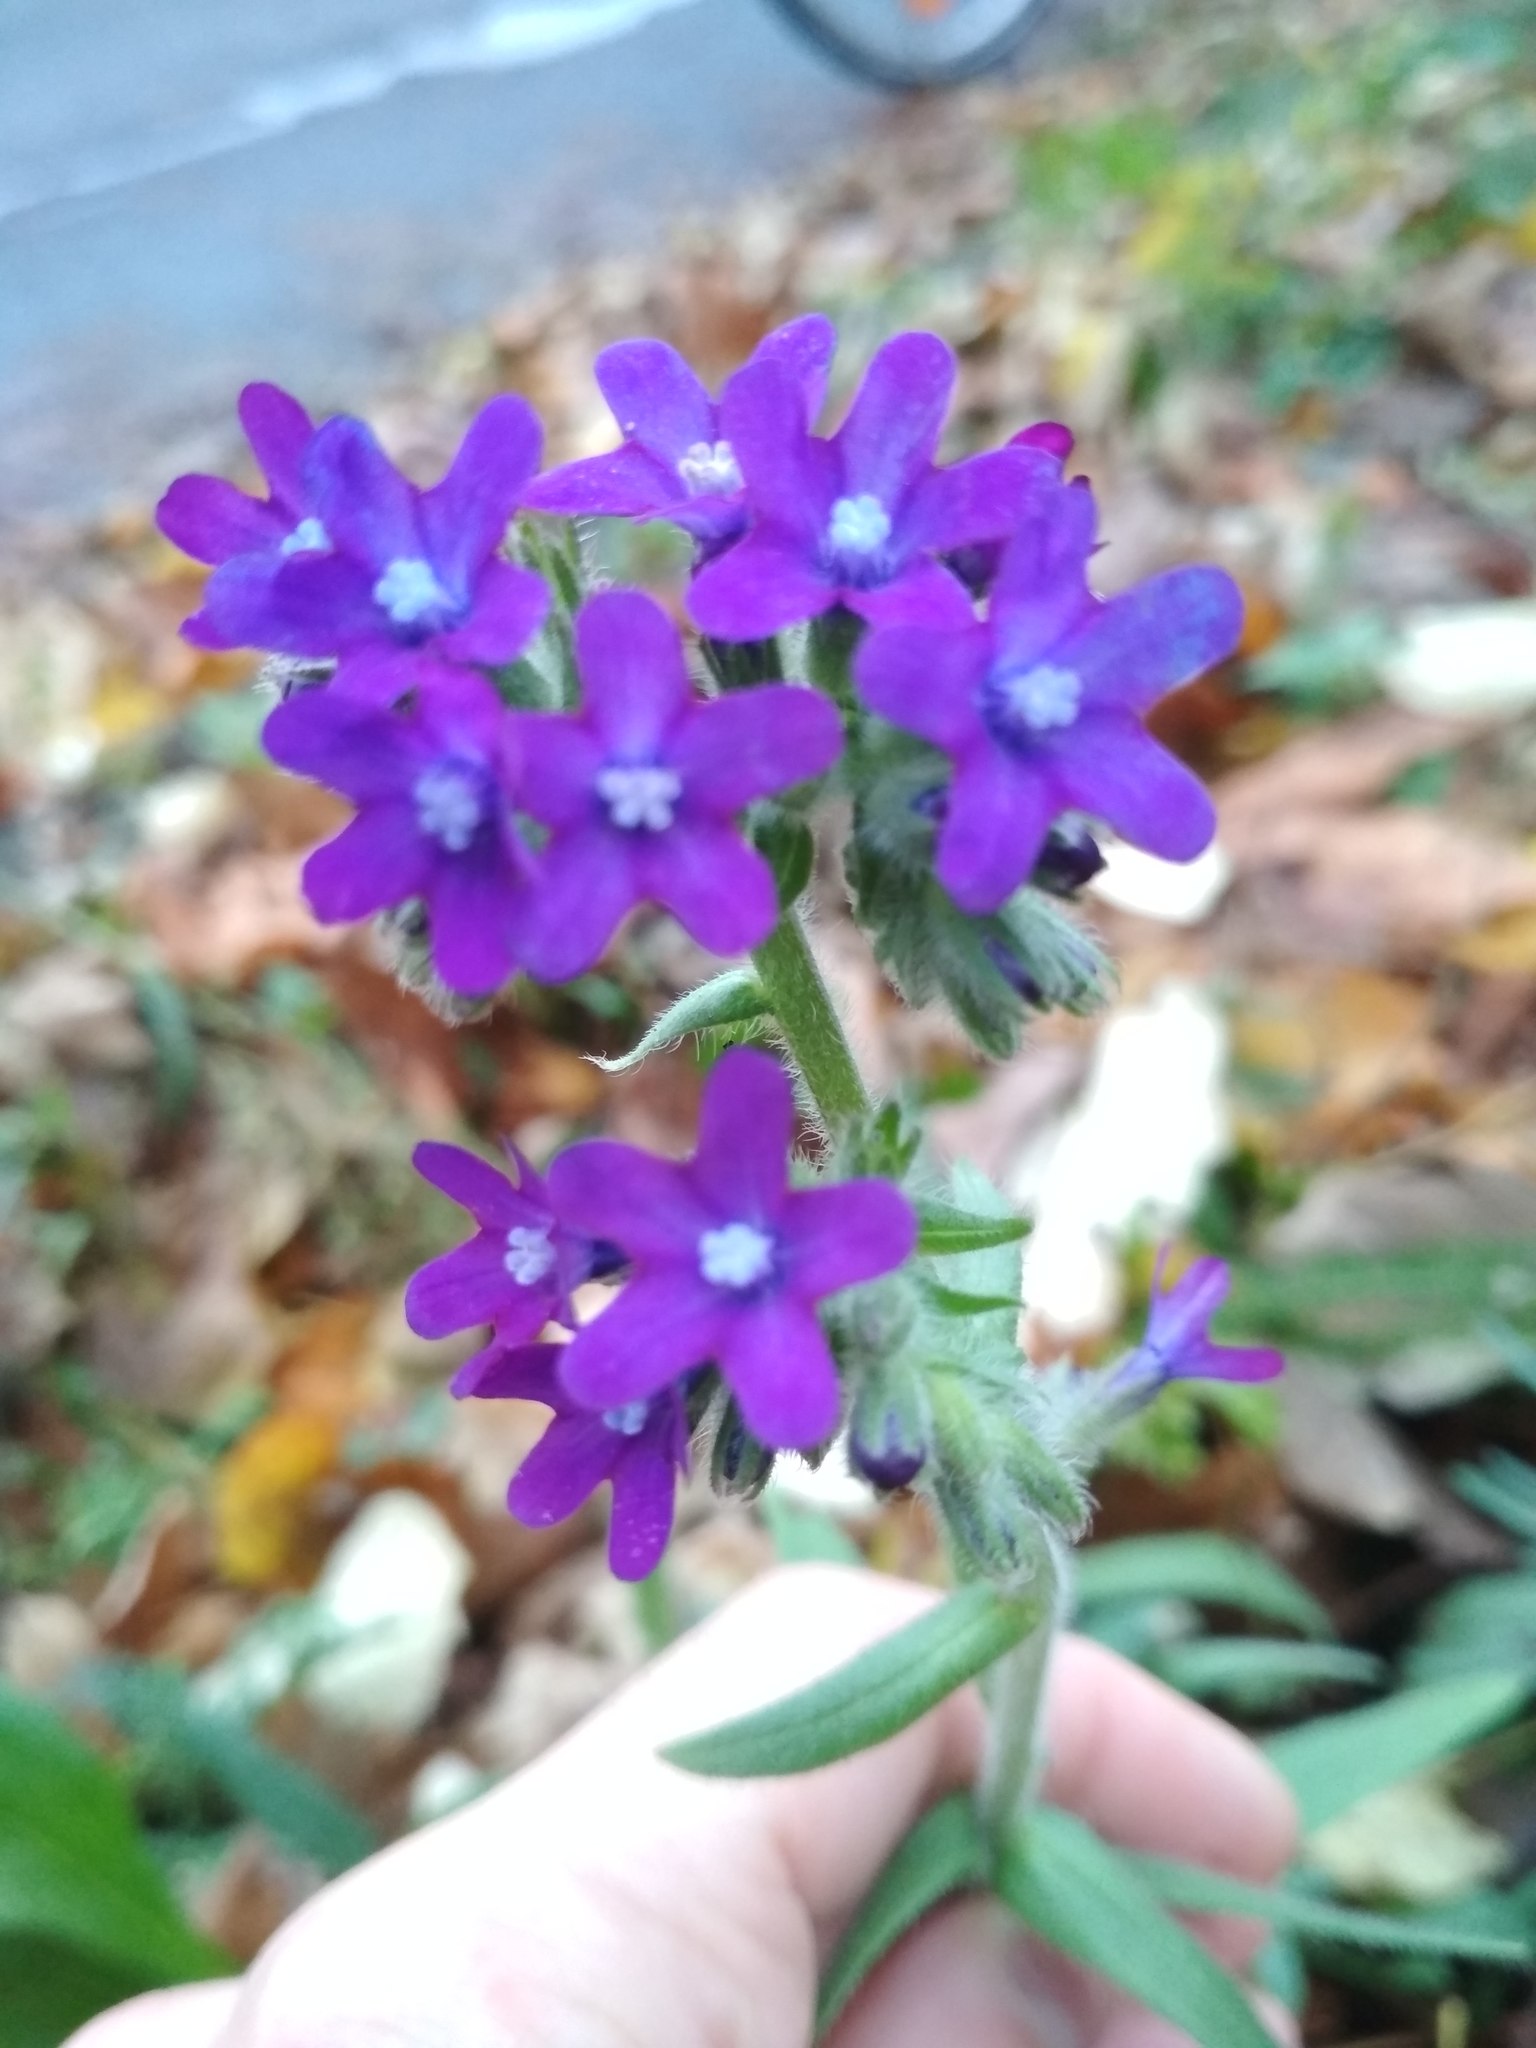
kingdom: Plantae
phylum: Tracheophyta
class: Magnoliopsida
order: Boraginales
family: Boraginaceae
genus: Anchusa
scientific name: Anchusa officinalis
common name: Alkanet
